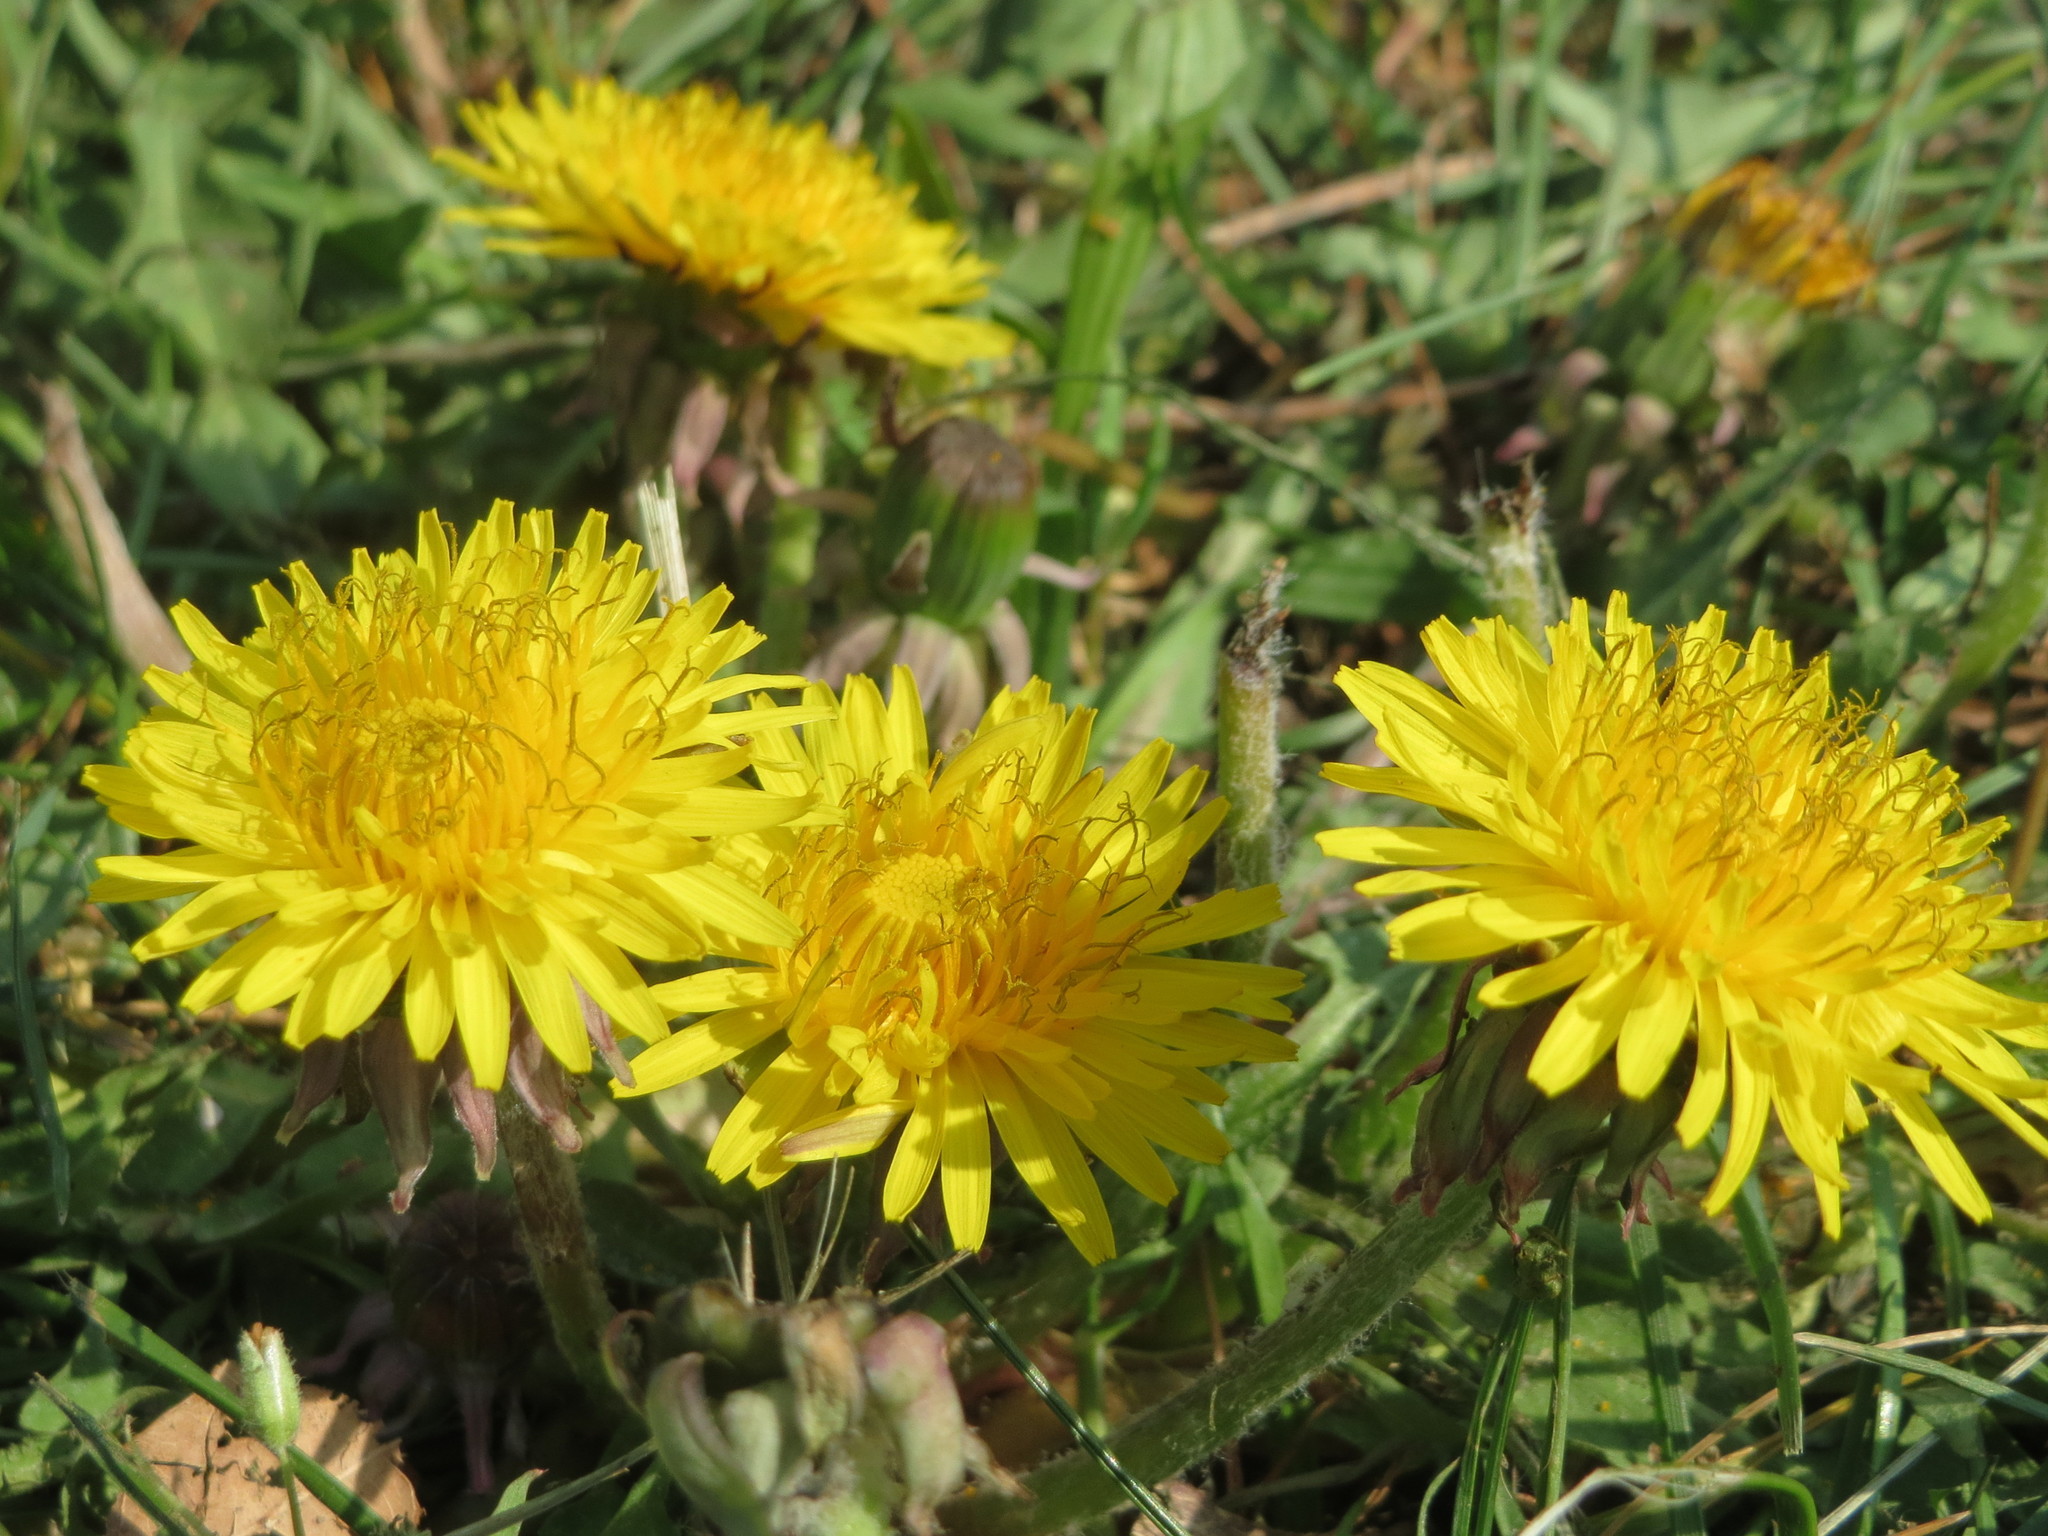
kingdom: Plantae
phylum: Tracheophyta
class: Magnoliopsida
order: Asterales
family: Asteraceae
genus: Taraxacum
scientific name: Taraxacum officinale
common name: Common dandelion
